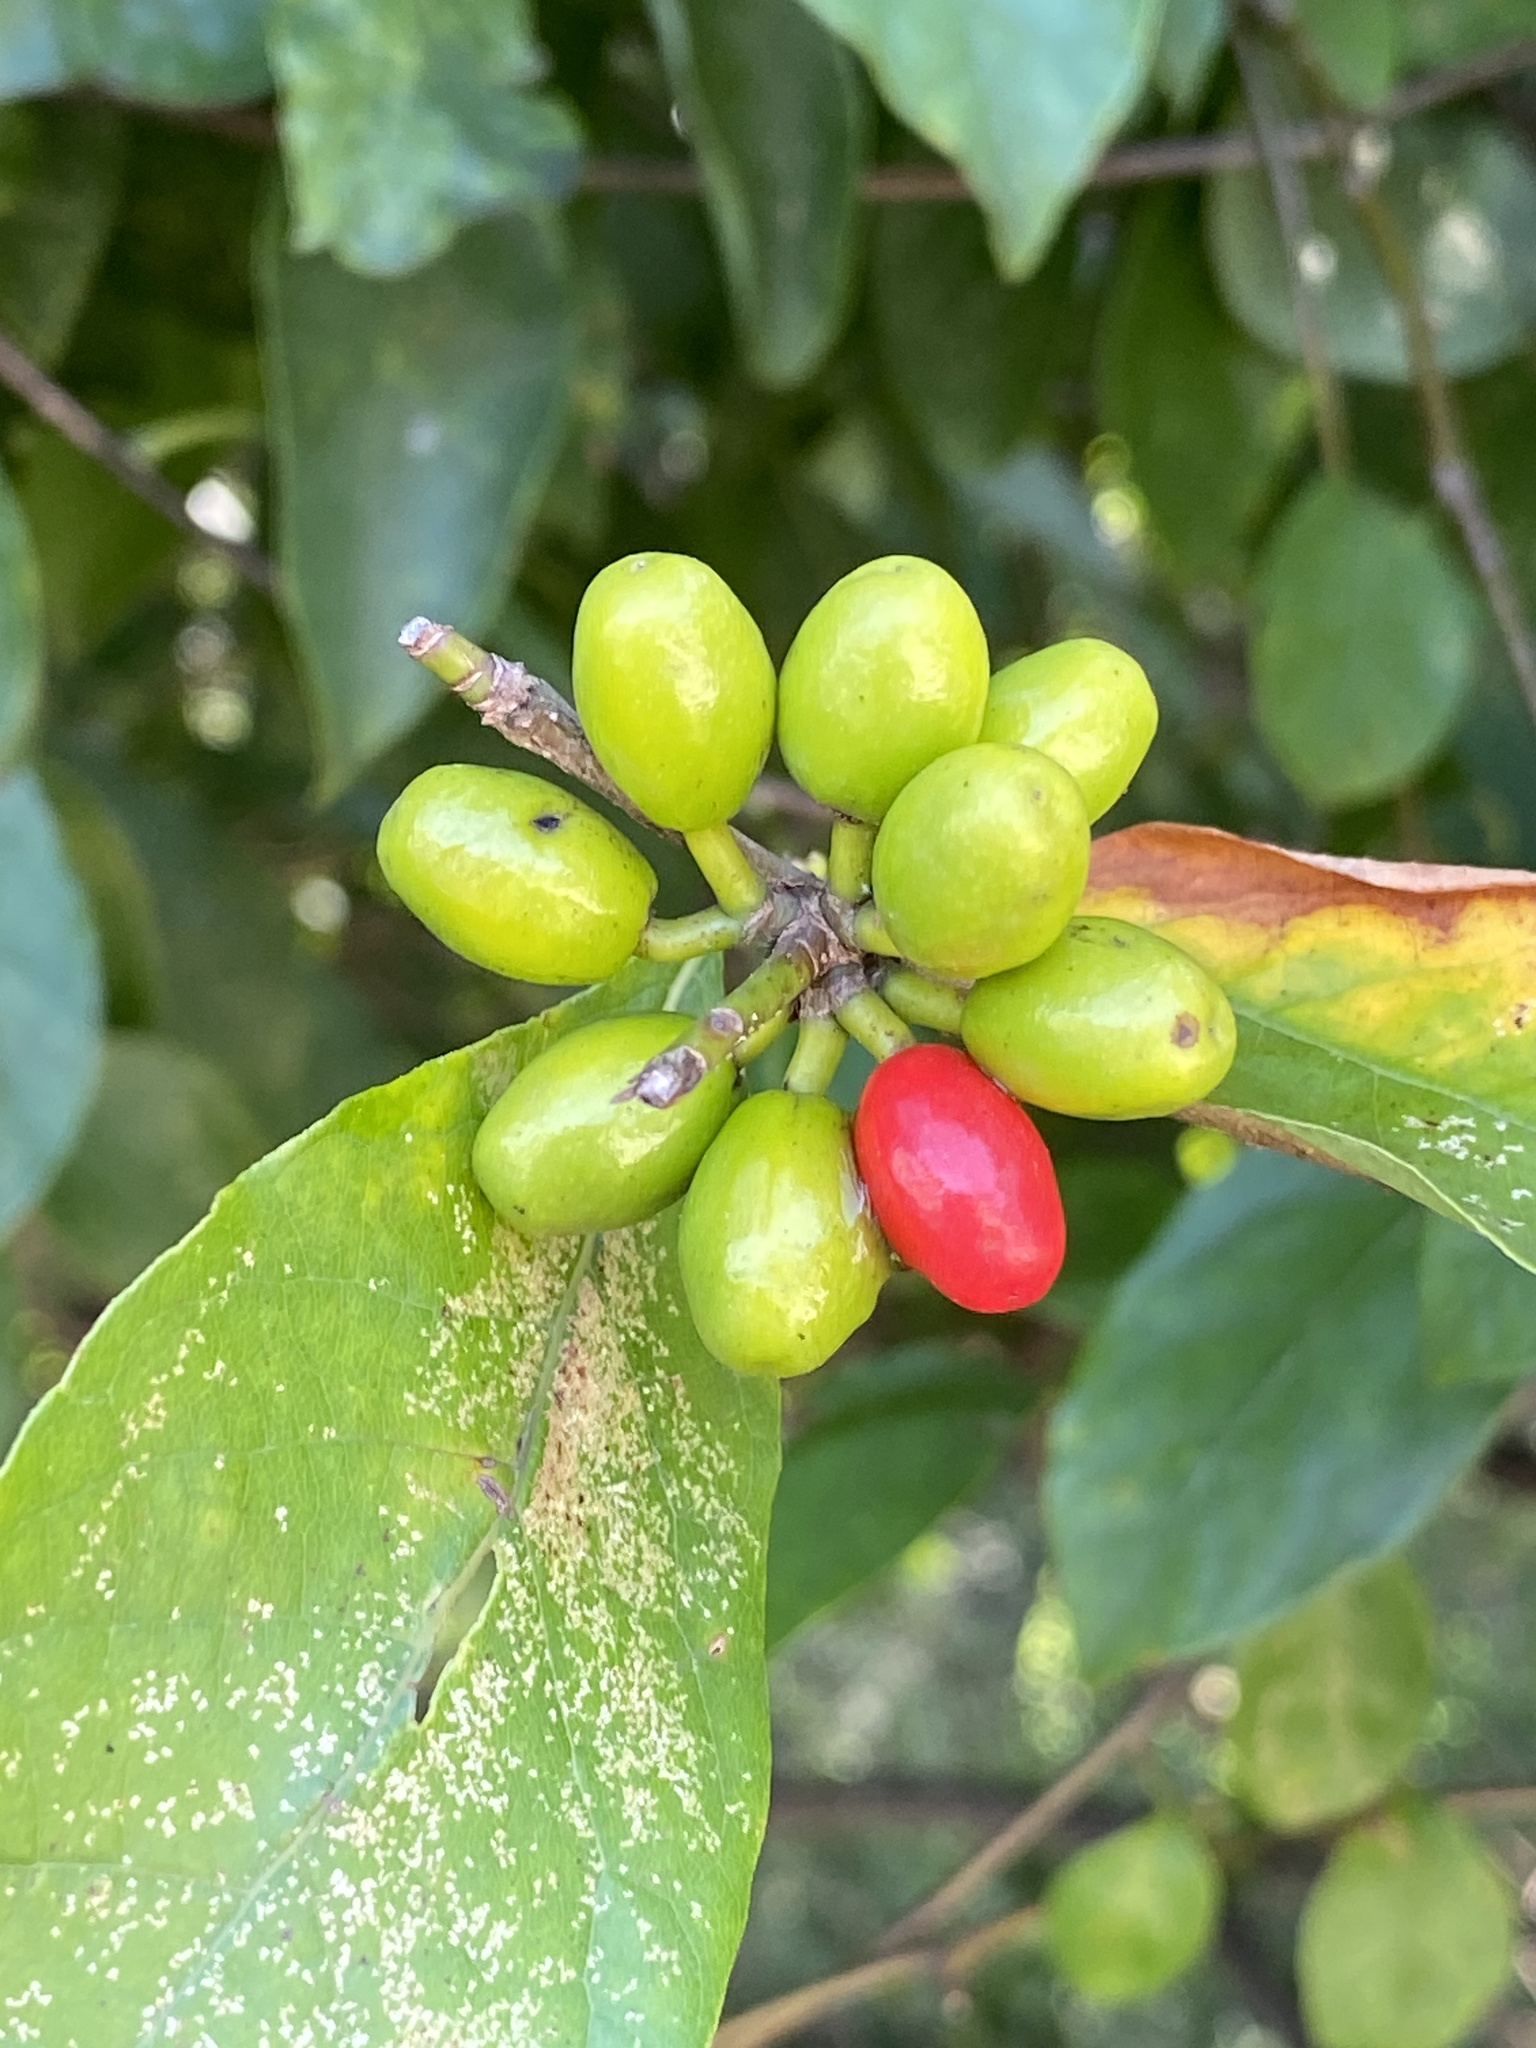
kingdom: Plantae
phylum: Tracheophyta
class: Magnoliopsida
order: Laurales
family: Lauraceae
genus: Lindera
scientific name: Lindera benzoin
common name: Spicebush
